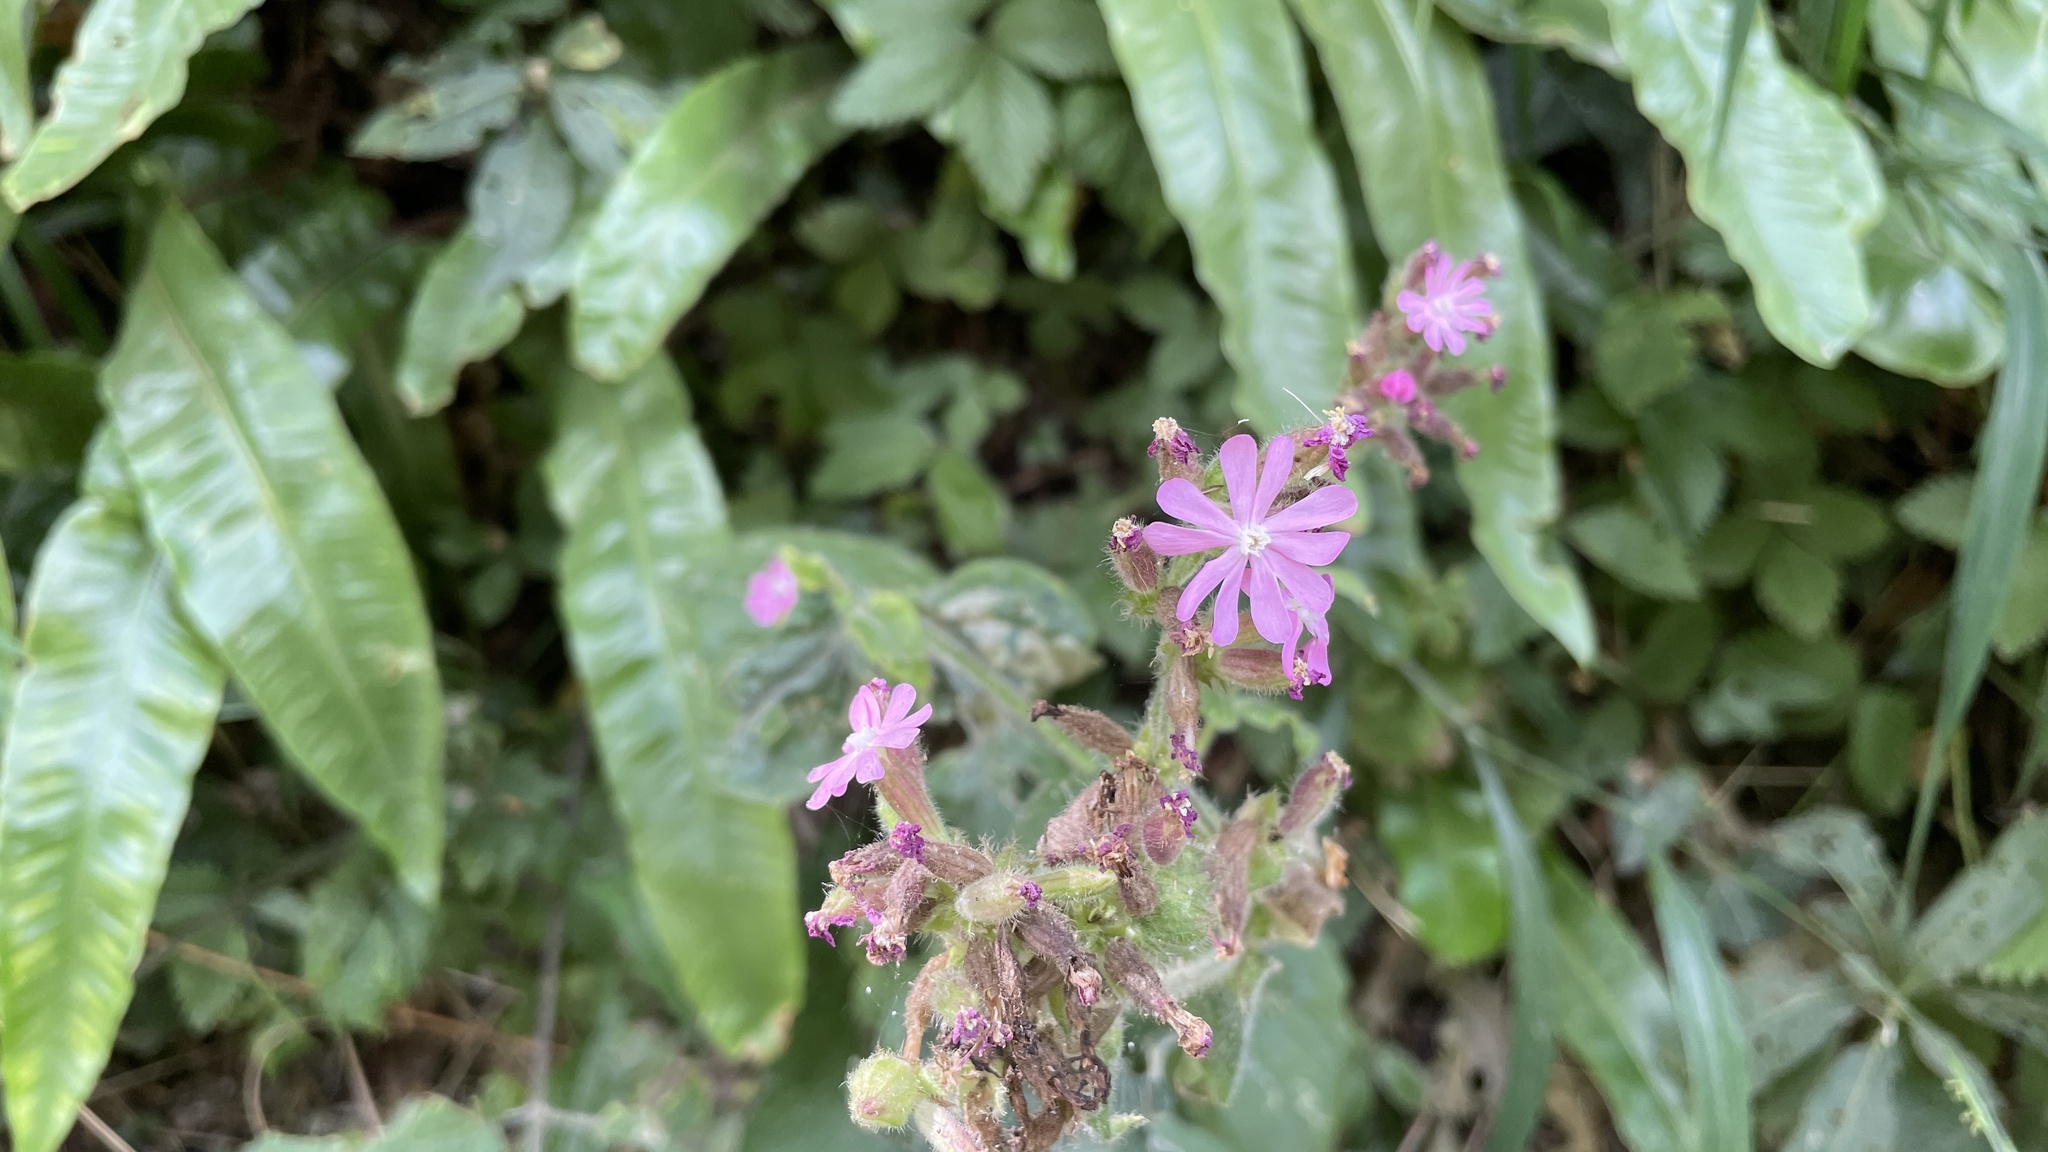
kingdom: Plantae
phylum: Tracheophyta
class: Magnoliopsida
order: Caryophyllales
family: Caryophyllaceae
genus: Silene
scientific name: Silene dioica
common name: Red campion
